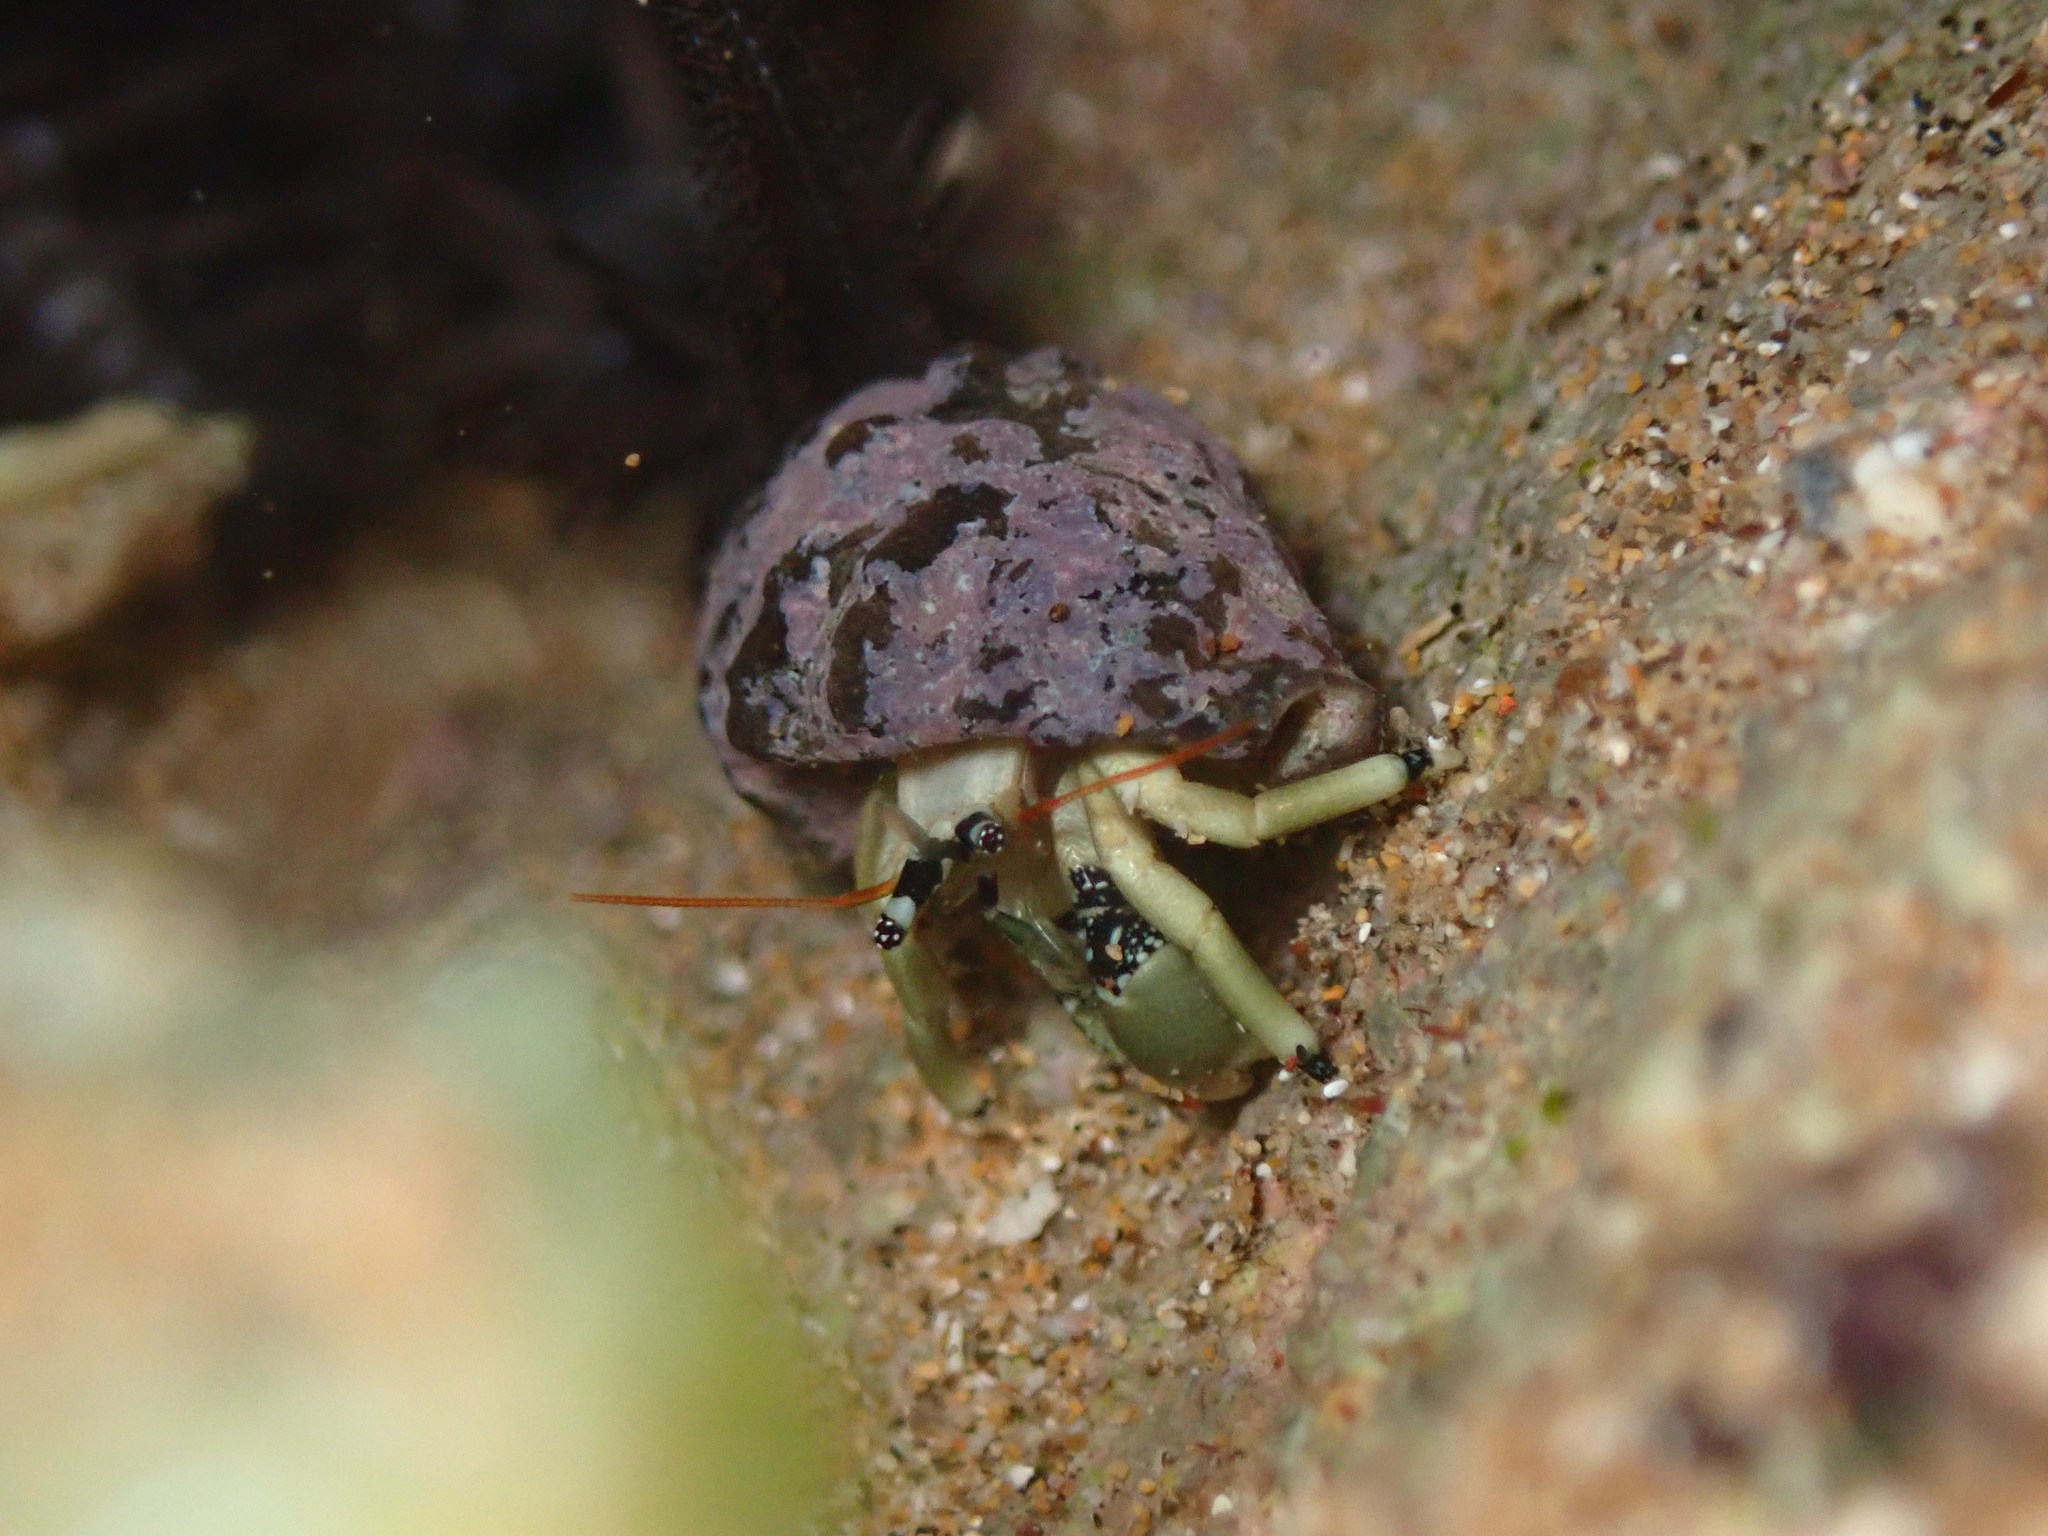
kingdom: Animalia
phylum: Arthropoda
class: Malacostraca
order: Decapoda
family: Diogenidae
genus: Calcinus
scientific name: Calcinus guamensis
